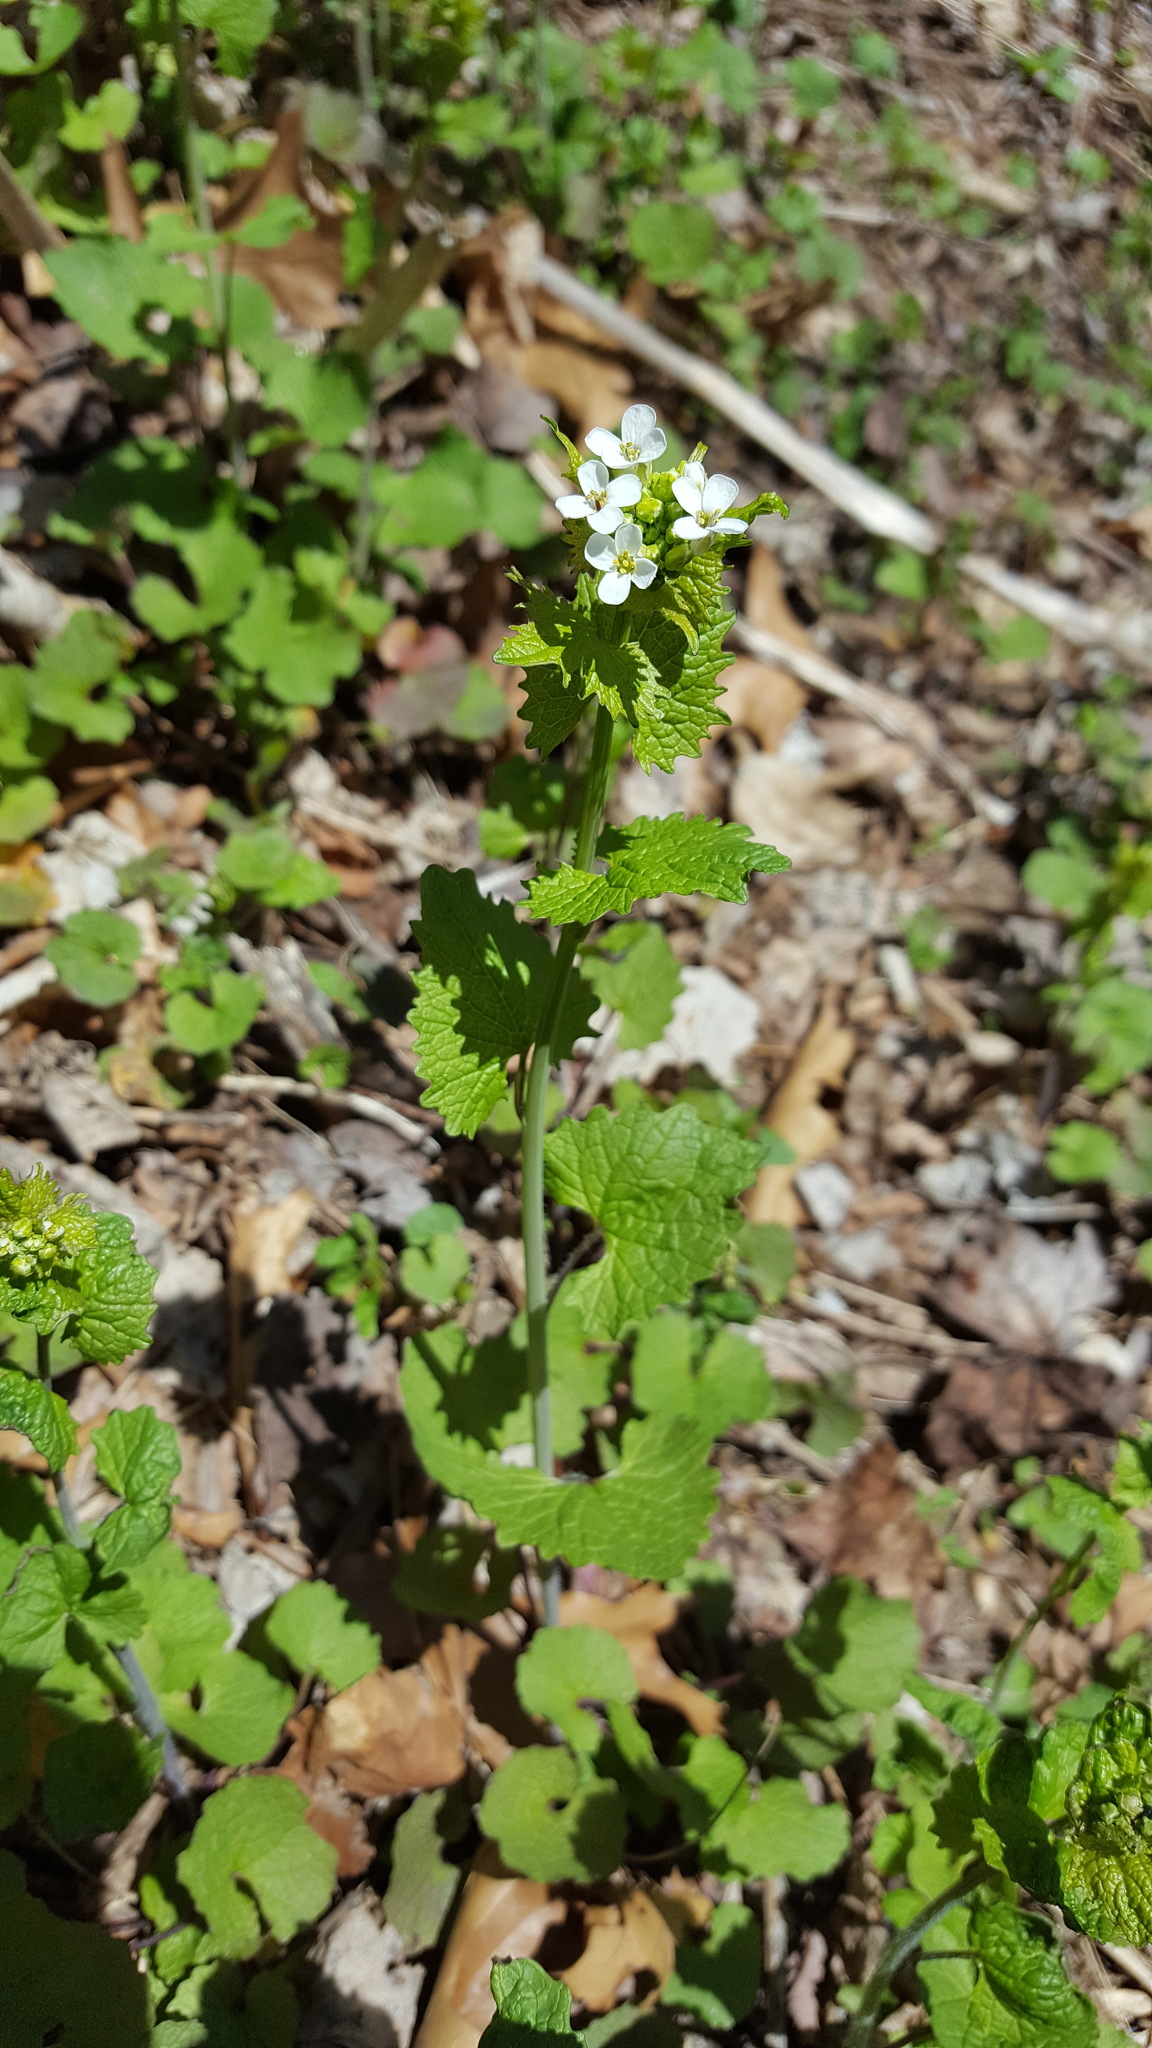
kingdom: Plantae
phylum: Tracheophyta
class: Magnoliopsida
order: Brassicales
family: Brassicaceae
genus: Alliaria
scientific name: Alliaria petiolata
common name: Garlic mustard
